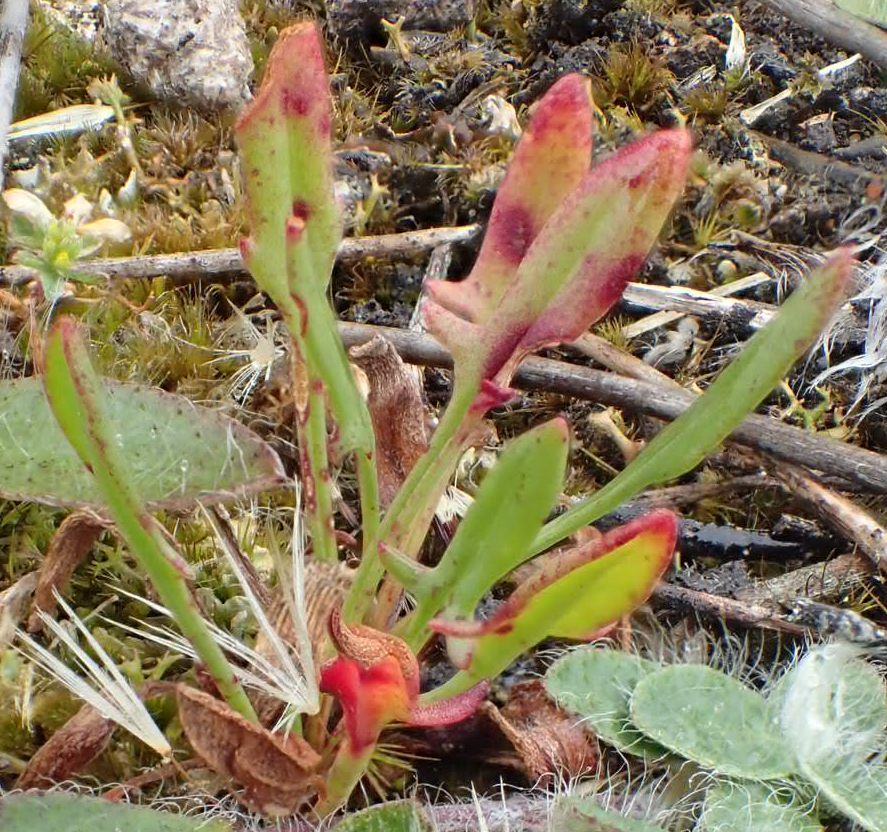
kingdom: Plantae
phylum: Tracheophyta
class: Magnoliopsida
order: Caryophyllales
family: Polygonaceae
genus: Rumex
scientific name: Rumex acetosella
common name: Common sheep sorrel
